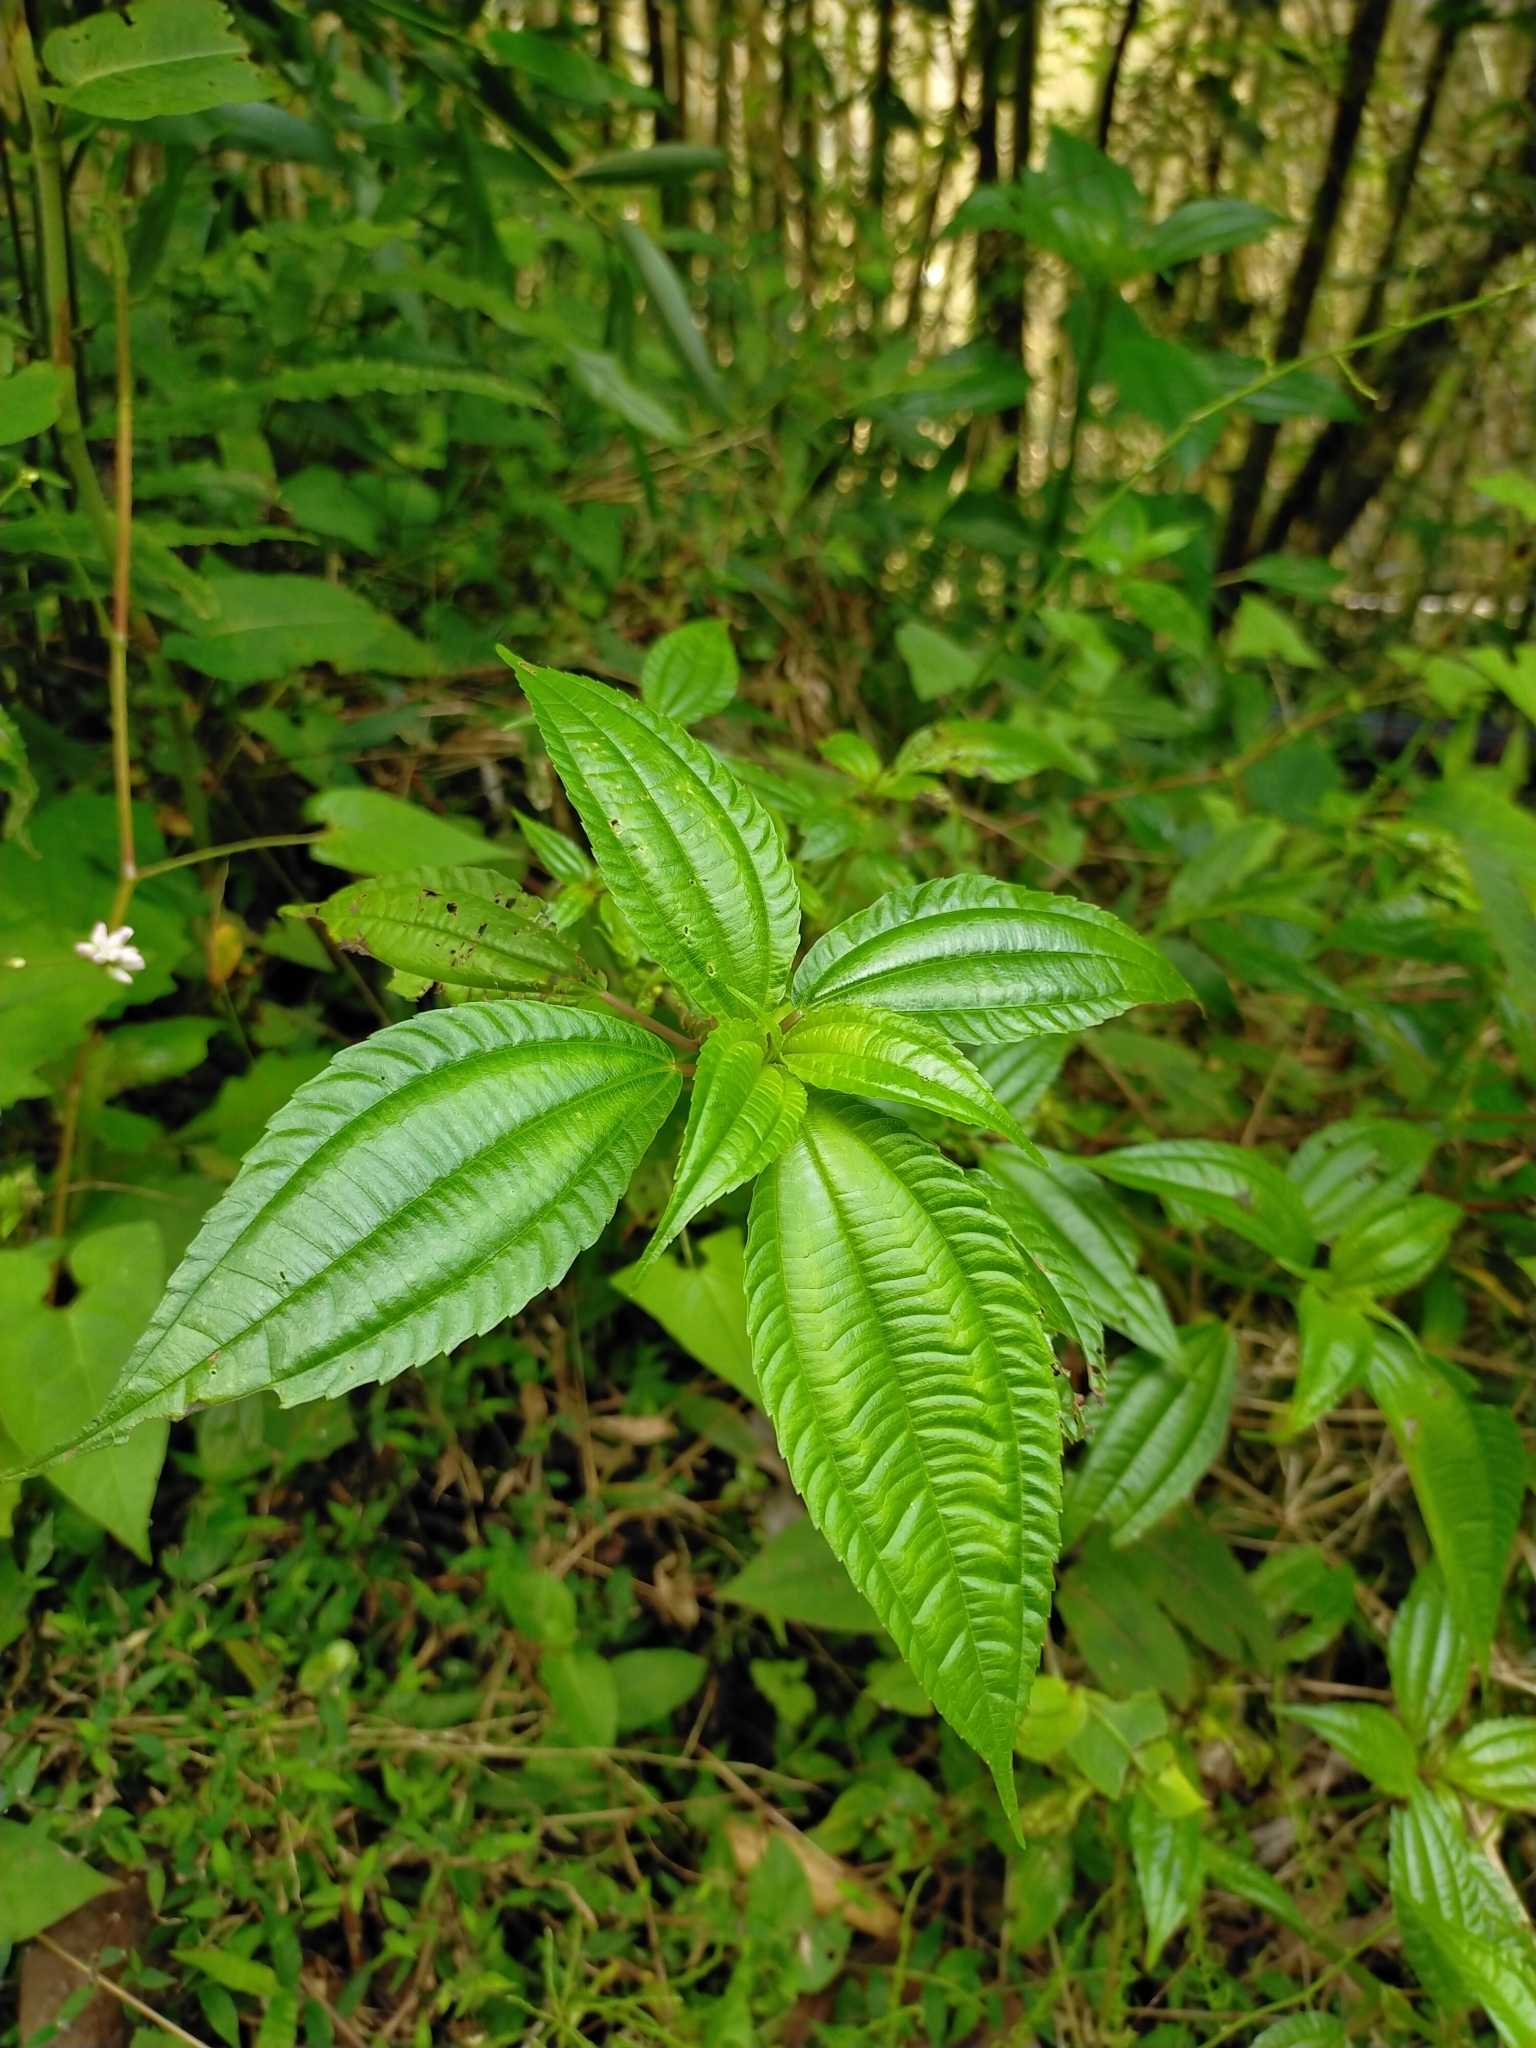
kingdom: Plantae
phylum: Tracheophyta
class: Magnoliopsida
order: Rosales
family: Urticaceae
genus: Pilea
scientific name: Pilea melastomoides
